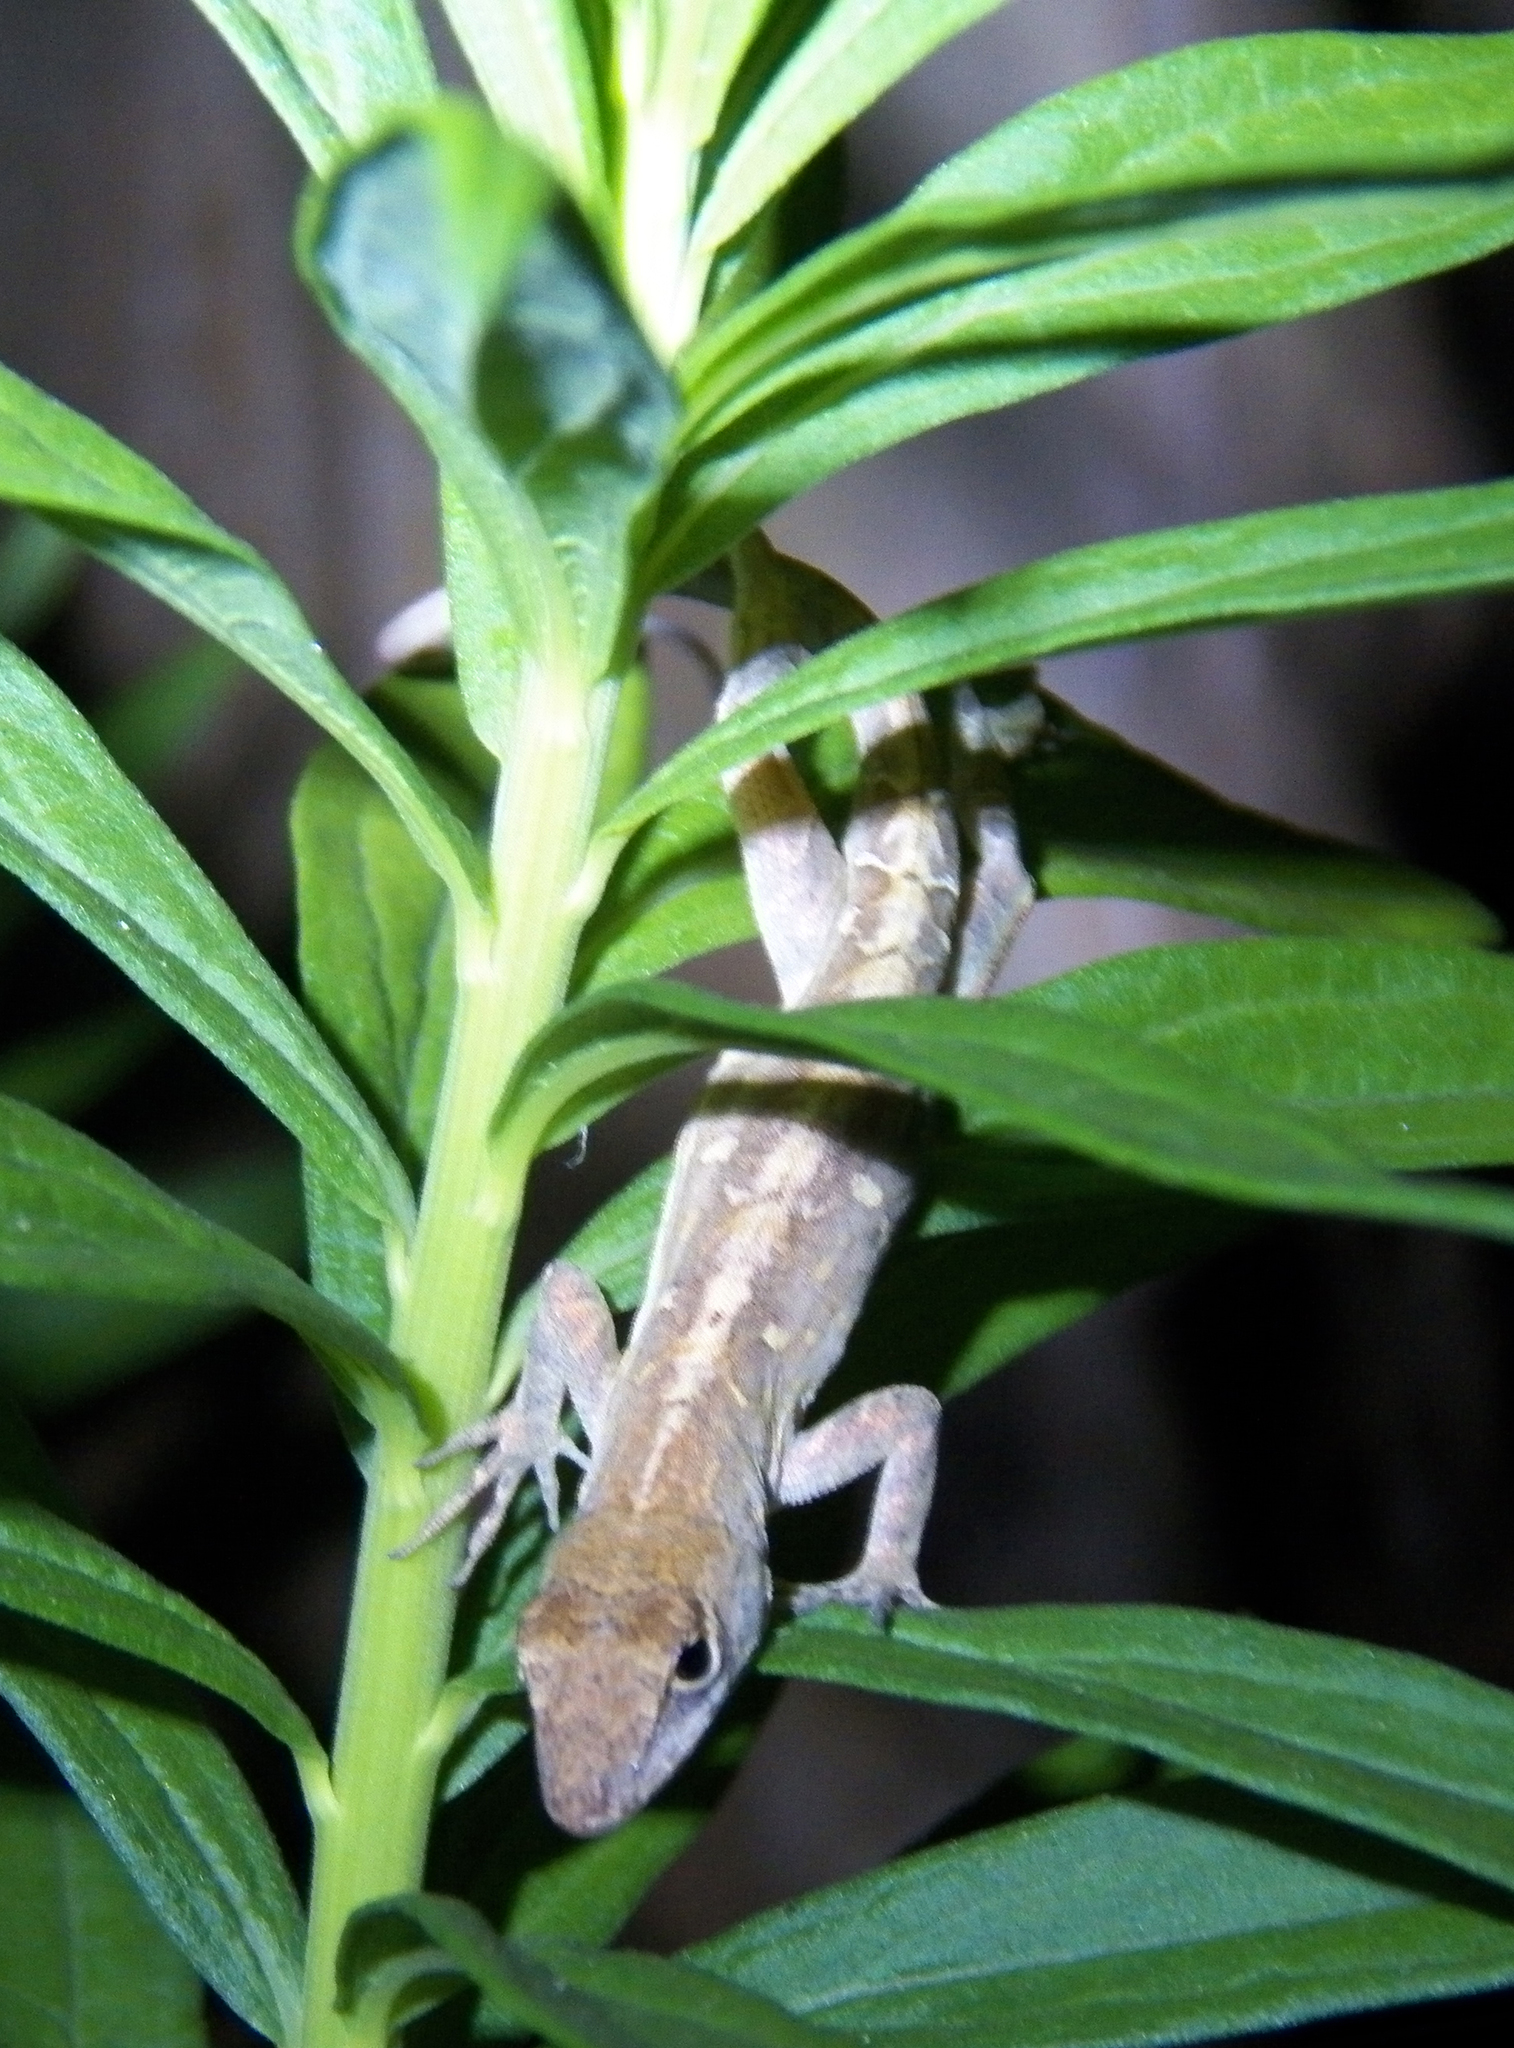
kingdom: Animalia
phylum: Chordata
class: Squamata
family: Dactyloidae
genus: Anolis
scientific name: Anolis sagrei
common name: Brown anole
